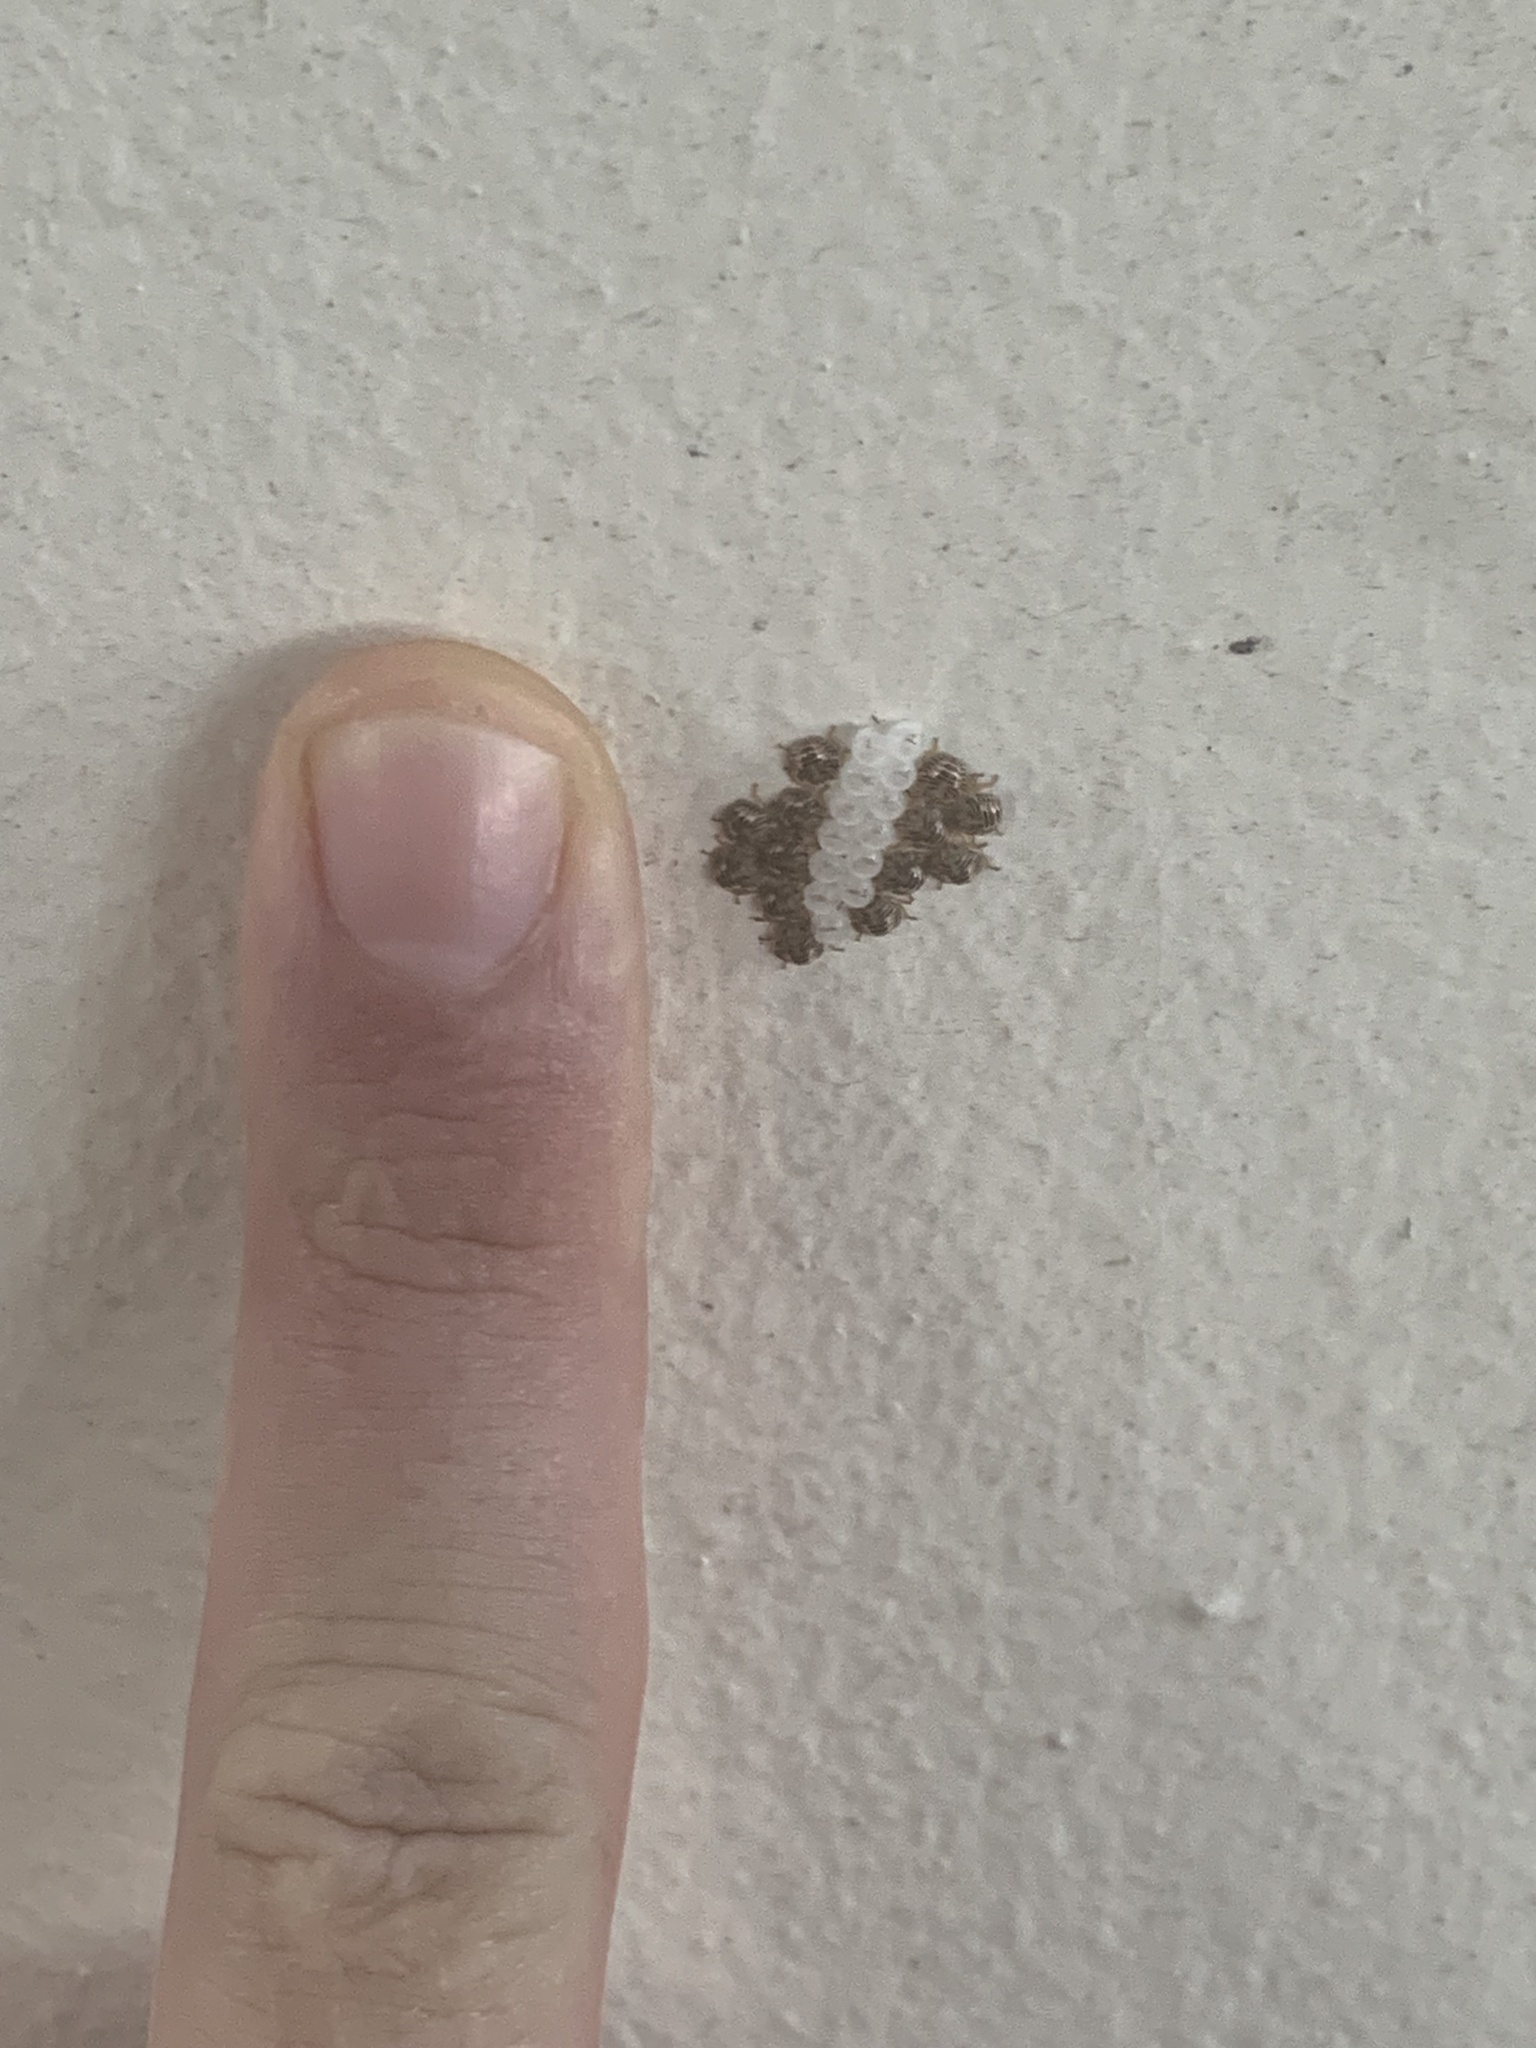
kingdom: Animalia
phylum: Arthropoda
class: Insecta
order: Hemiptera
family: Pentatomidae
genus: Edessa
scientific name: Edessa meditabunda
